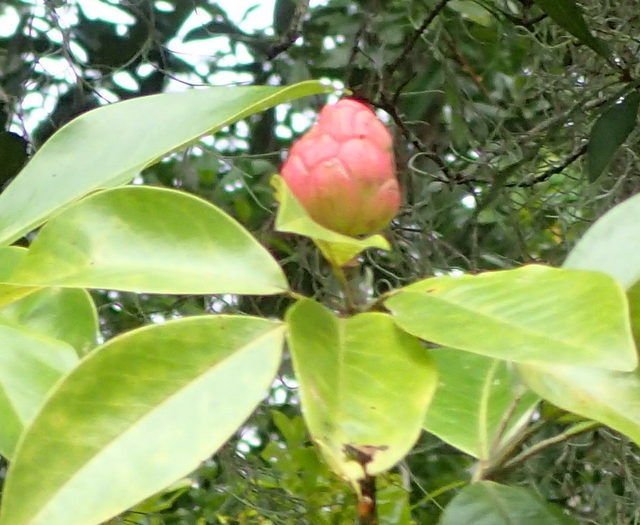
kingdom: Plantae
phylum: Tracheophyta
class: Magnoliopsida
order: Magnoliales
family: Magnoliaceae
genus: Magnolia
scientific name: Magnolia virginiana
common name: Swamp bay
